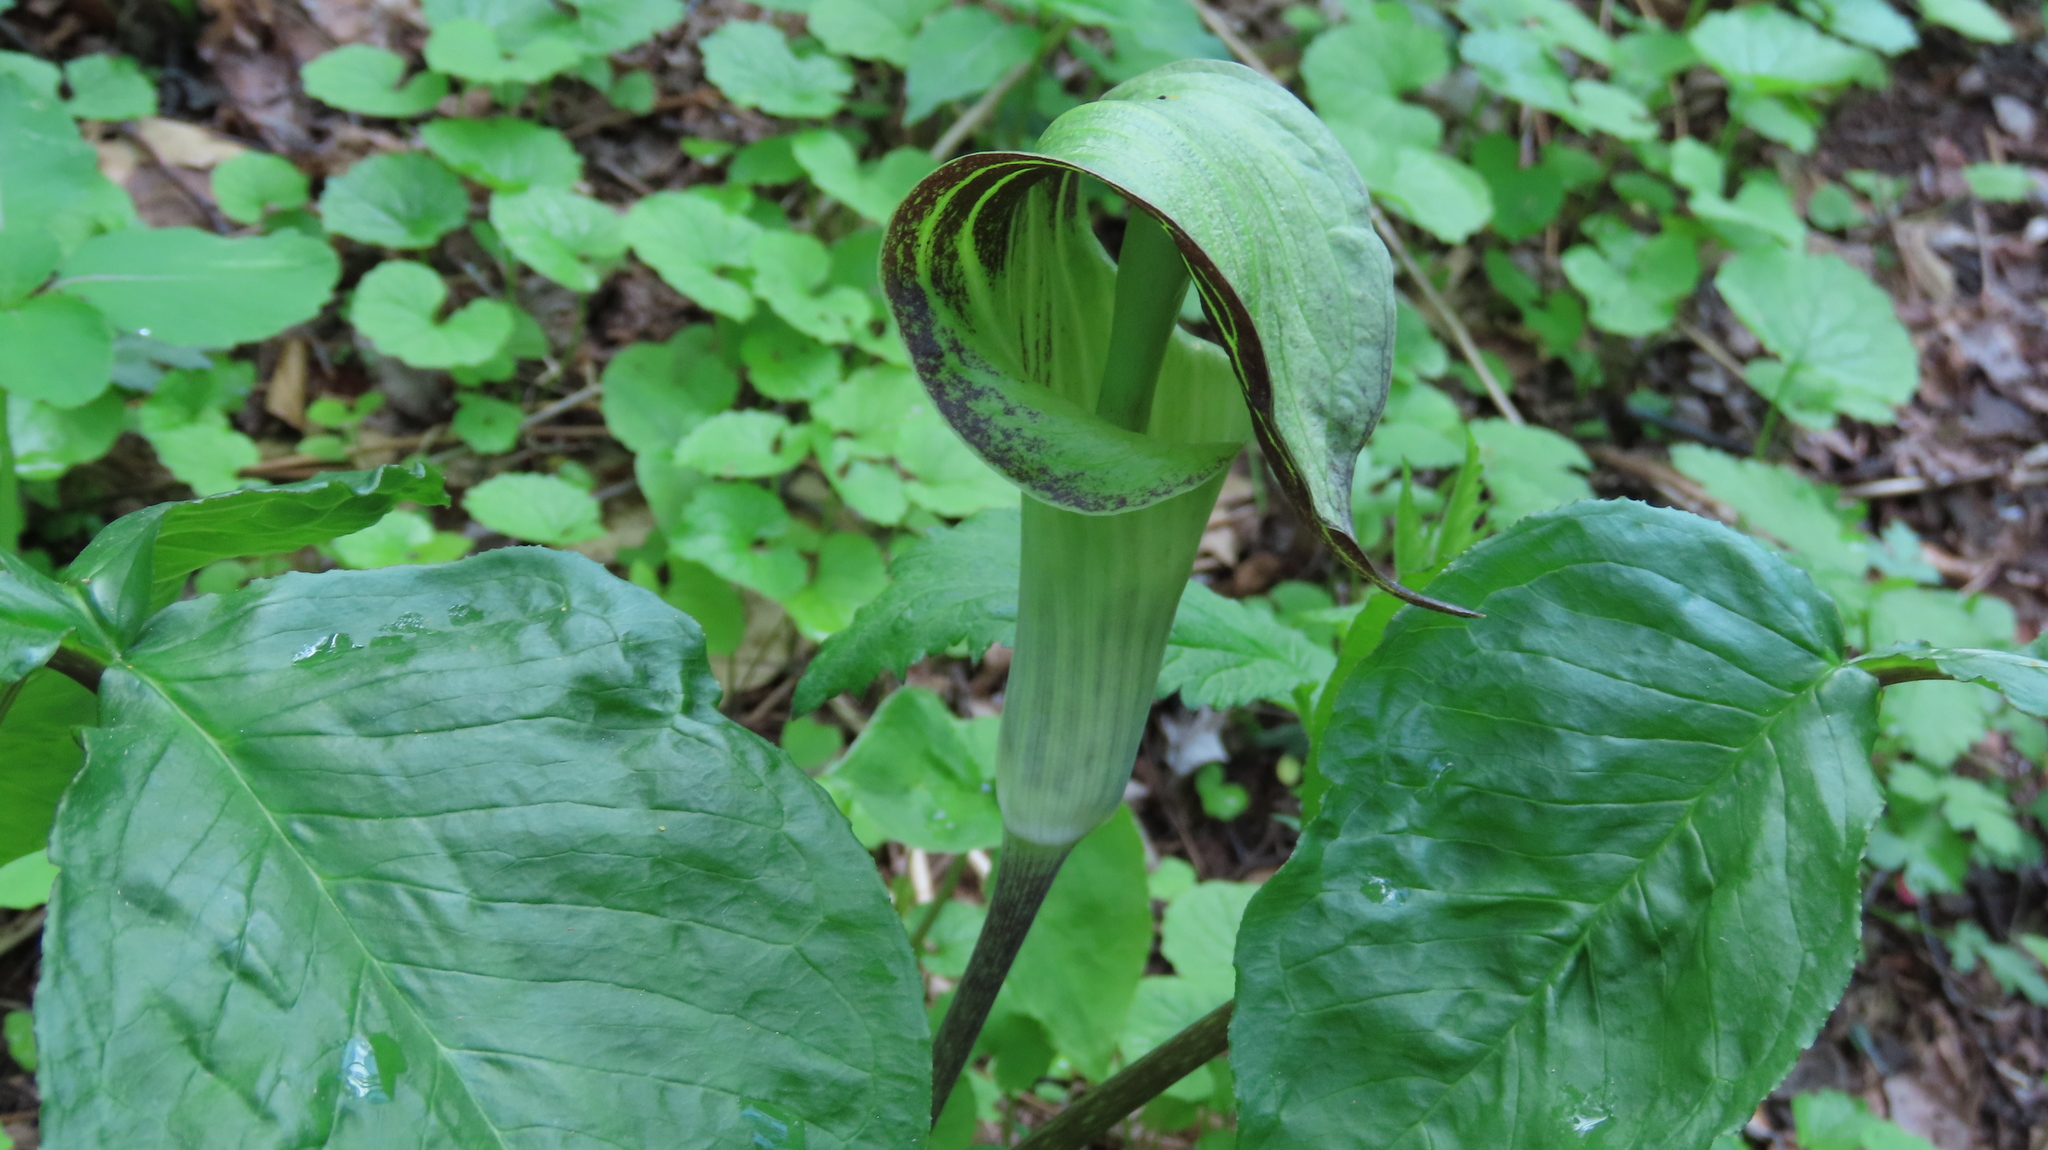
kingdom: Plantae
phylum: Tracheophyta
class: Liliopsida
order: Alismatales
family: Araceae
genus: Arisaema
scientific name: Arisaema triphyllum
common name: Jack-in-the-pulpit
